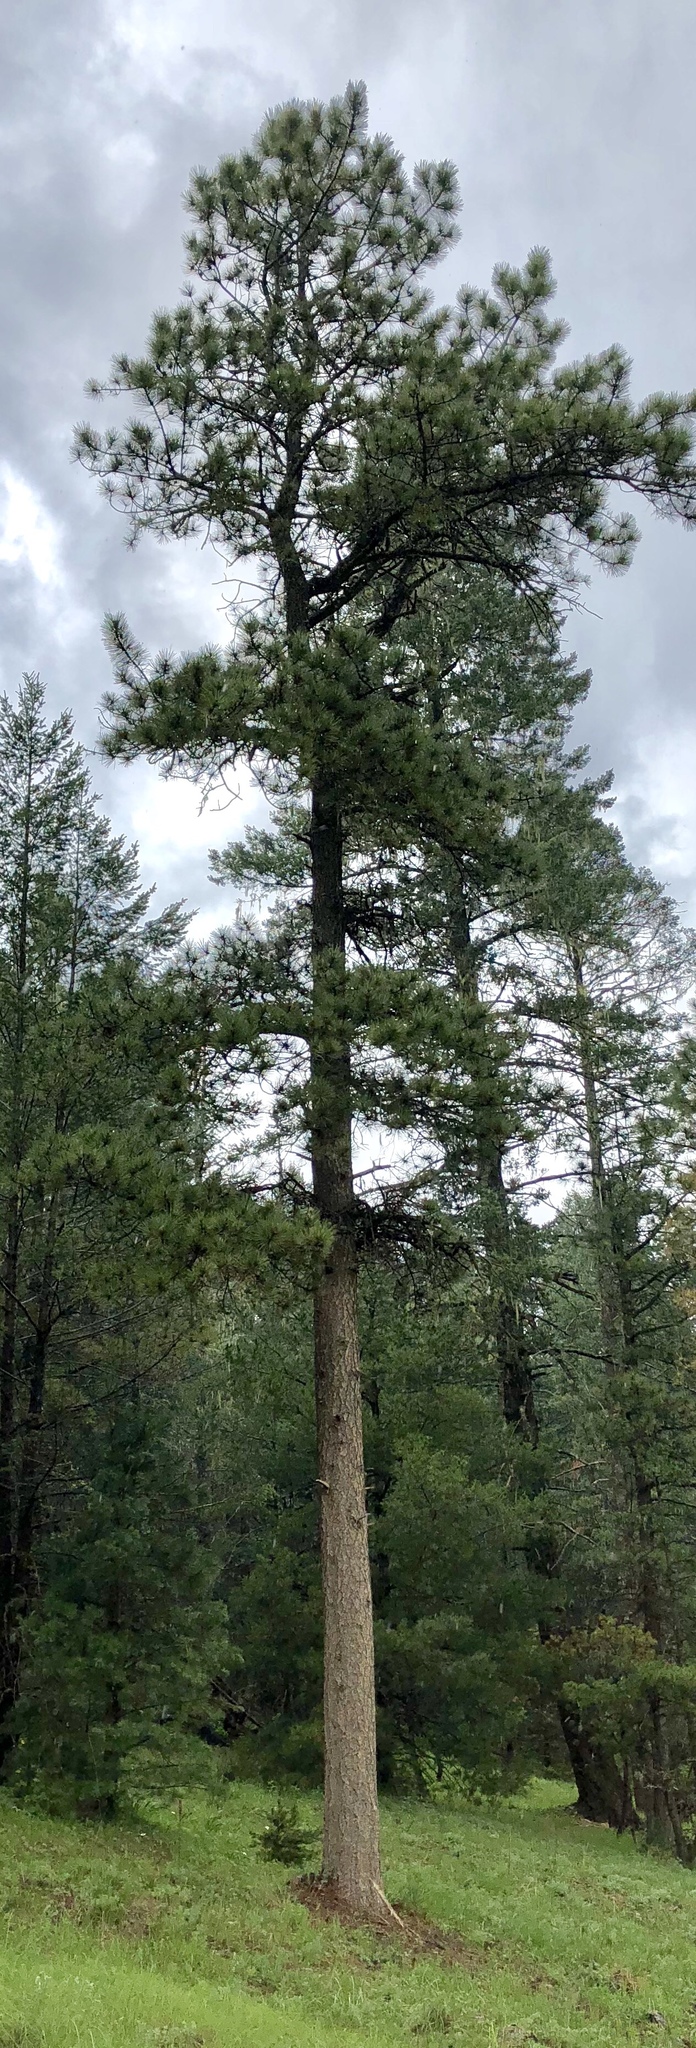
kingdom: Plantae
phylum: Tracheophyta
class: Pinopsida
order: Pinales
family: Pinaceae
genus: Pinus
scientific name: Pinus ponderosa
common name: Western yellow-pine
